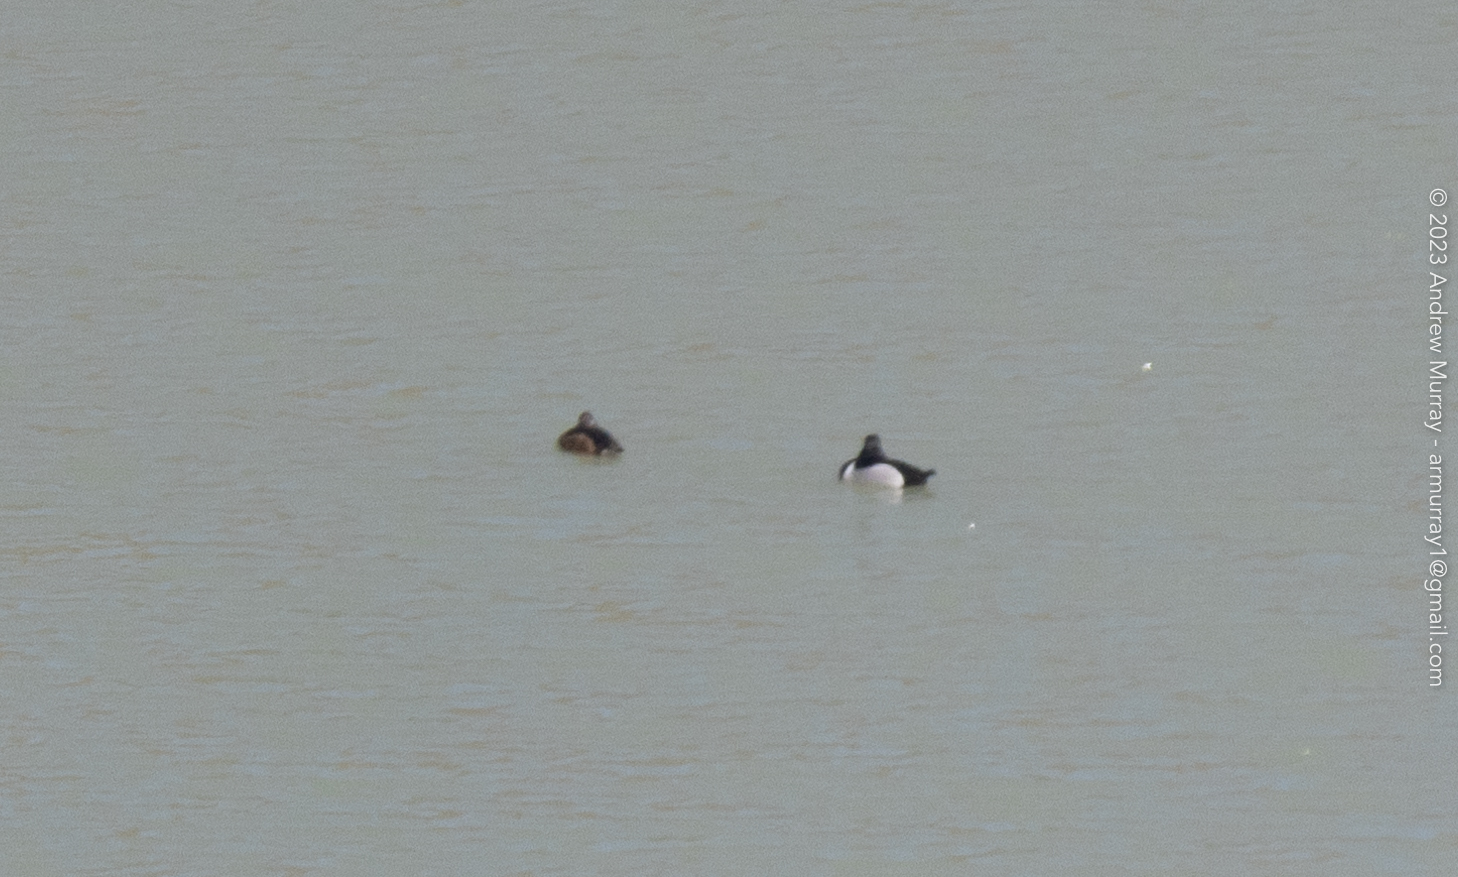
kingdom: Animalia
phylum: Chordata
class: Aves
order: Anseriformes
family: Anatidae
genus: Aythya
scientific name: Aythya collaris
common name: Ring-necked duck
